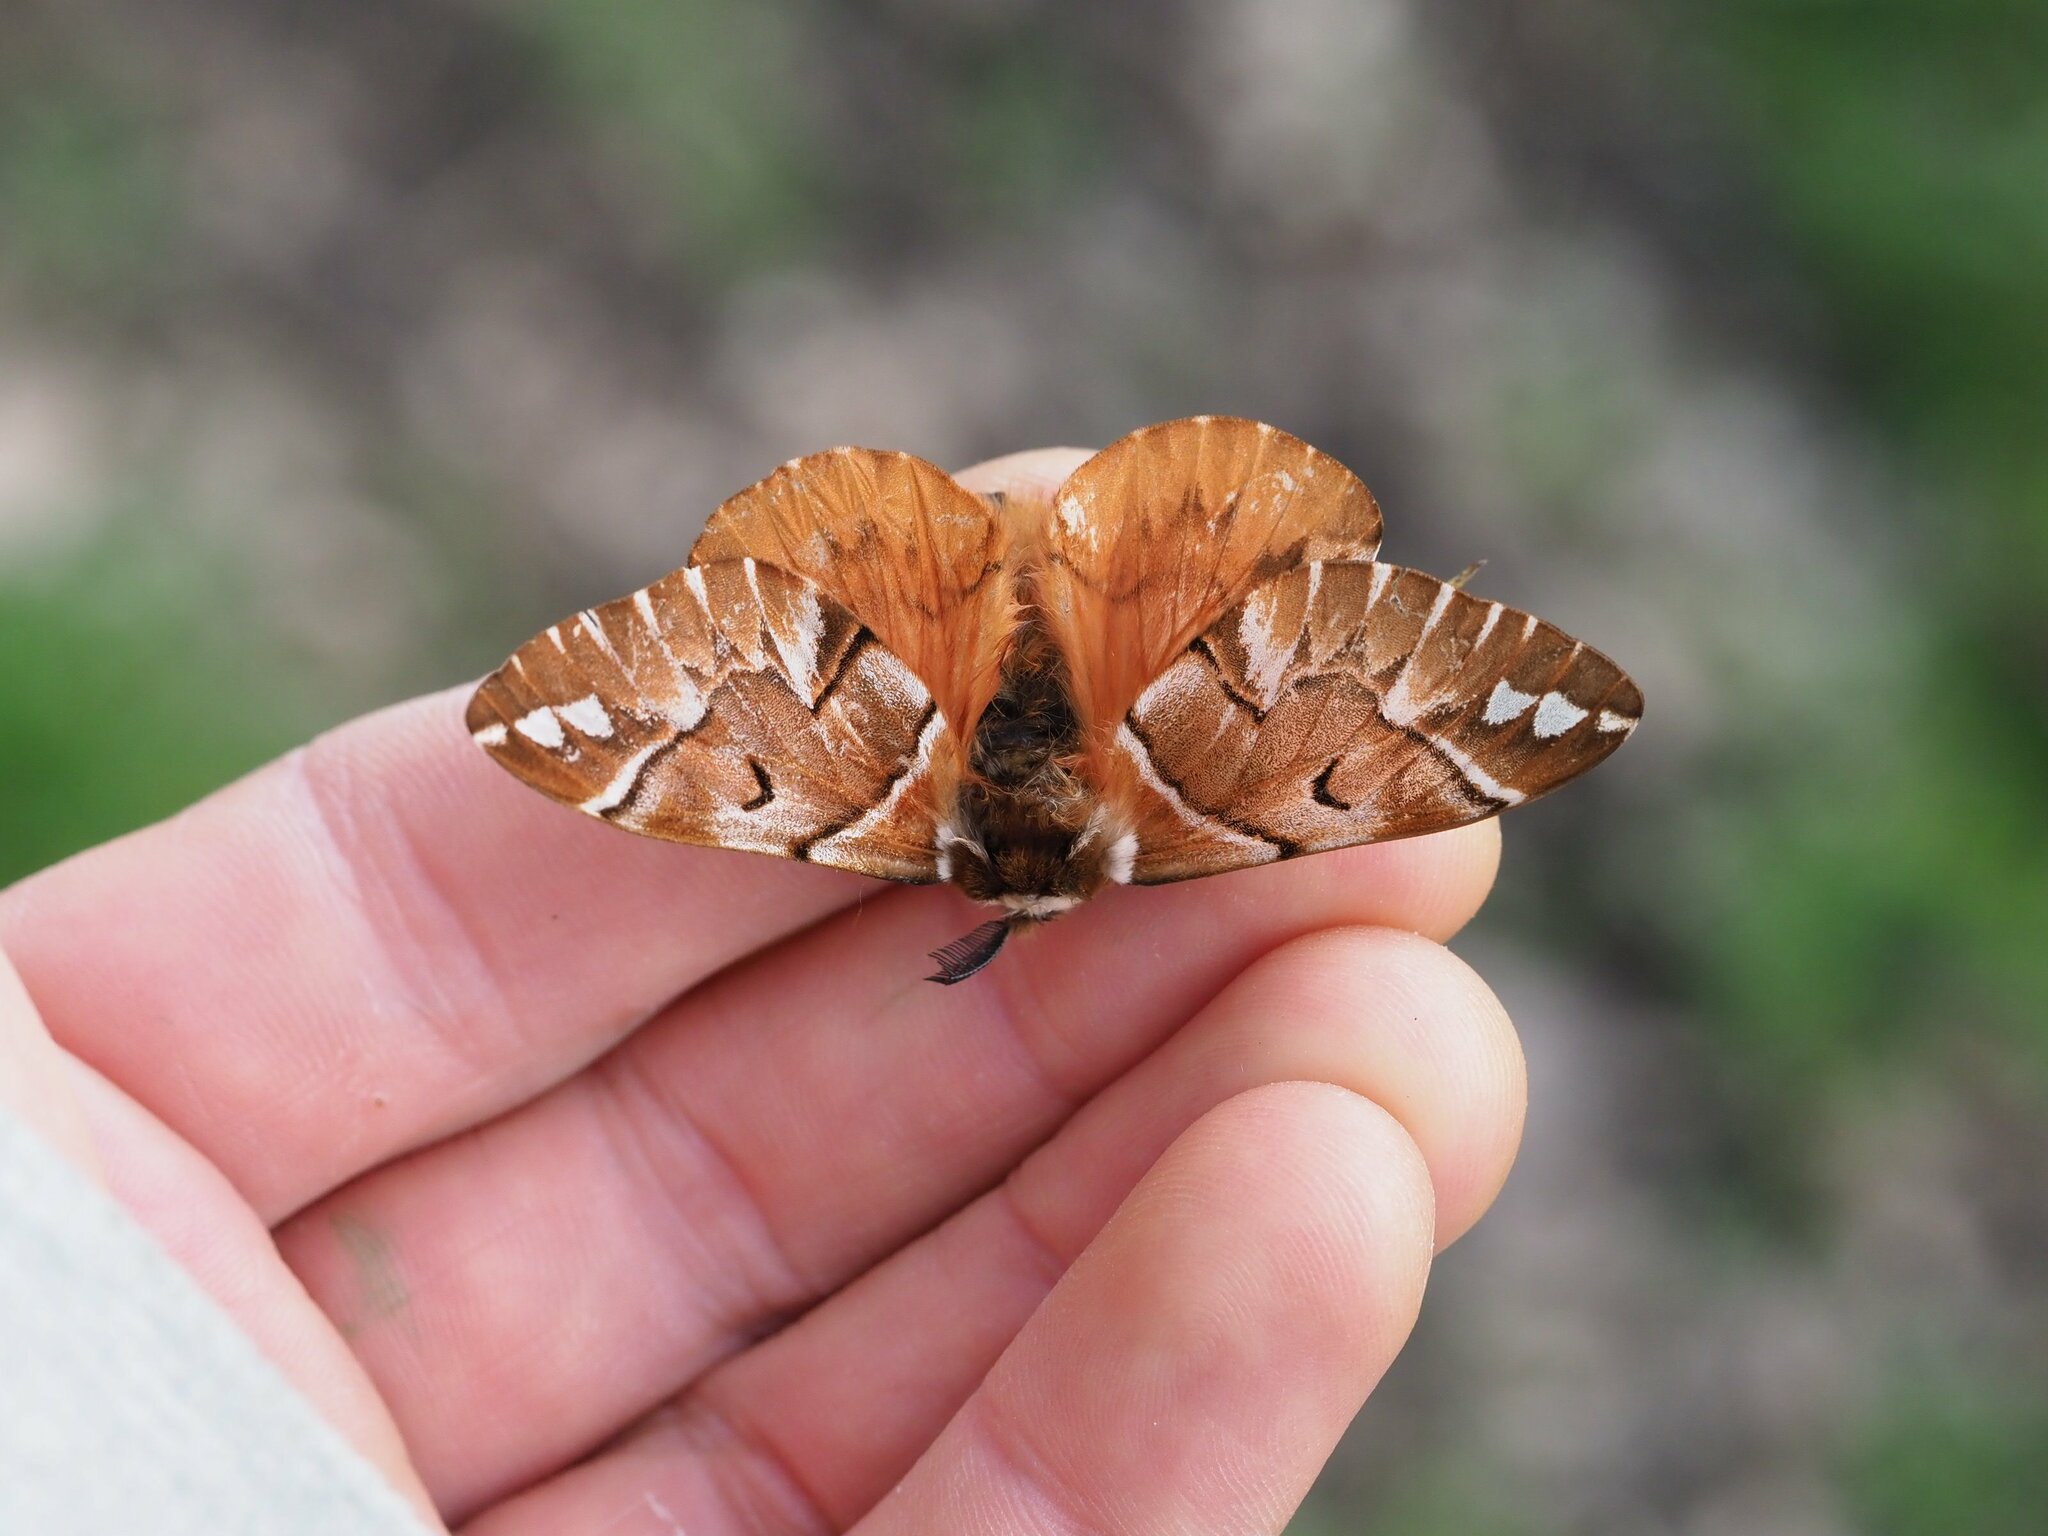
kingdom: Animalia
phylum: Arthropoda
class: Insecta
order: Lepidoptera
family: Endromidae
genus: Endromis
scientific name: Endromis versicolora
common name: Kentish glory
